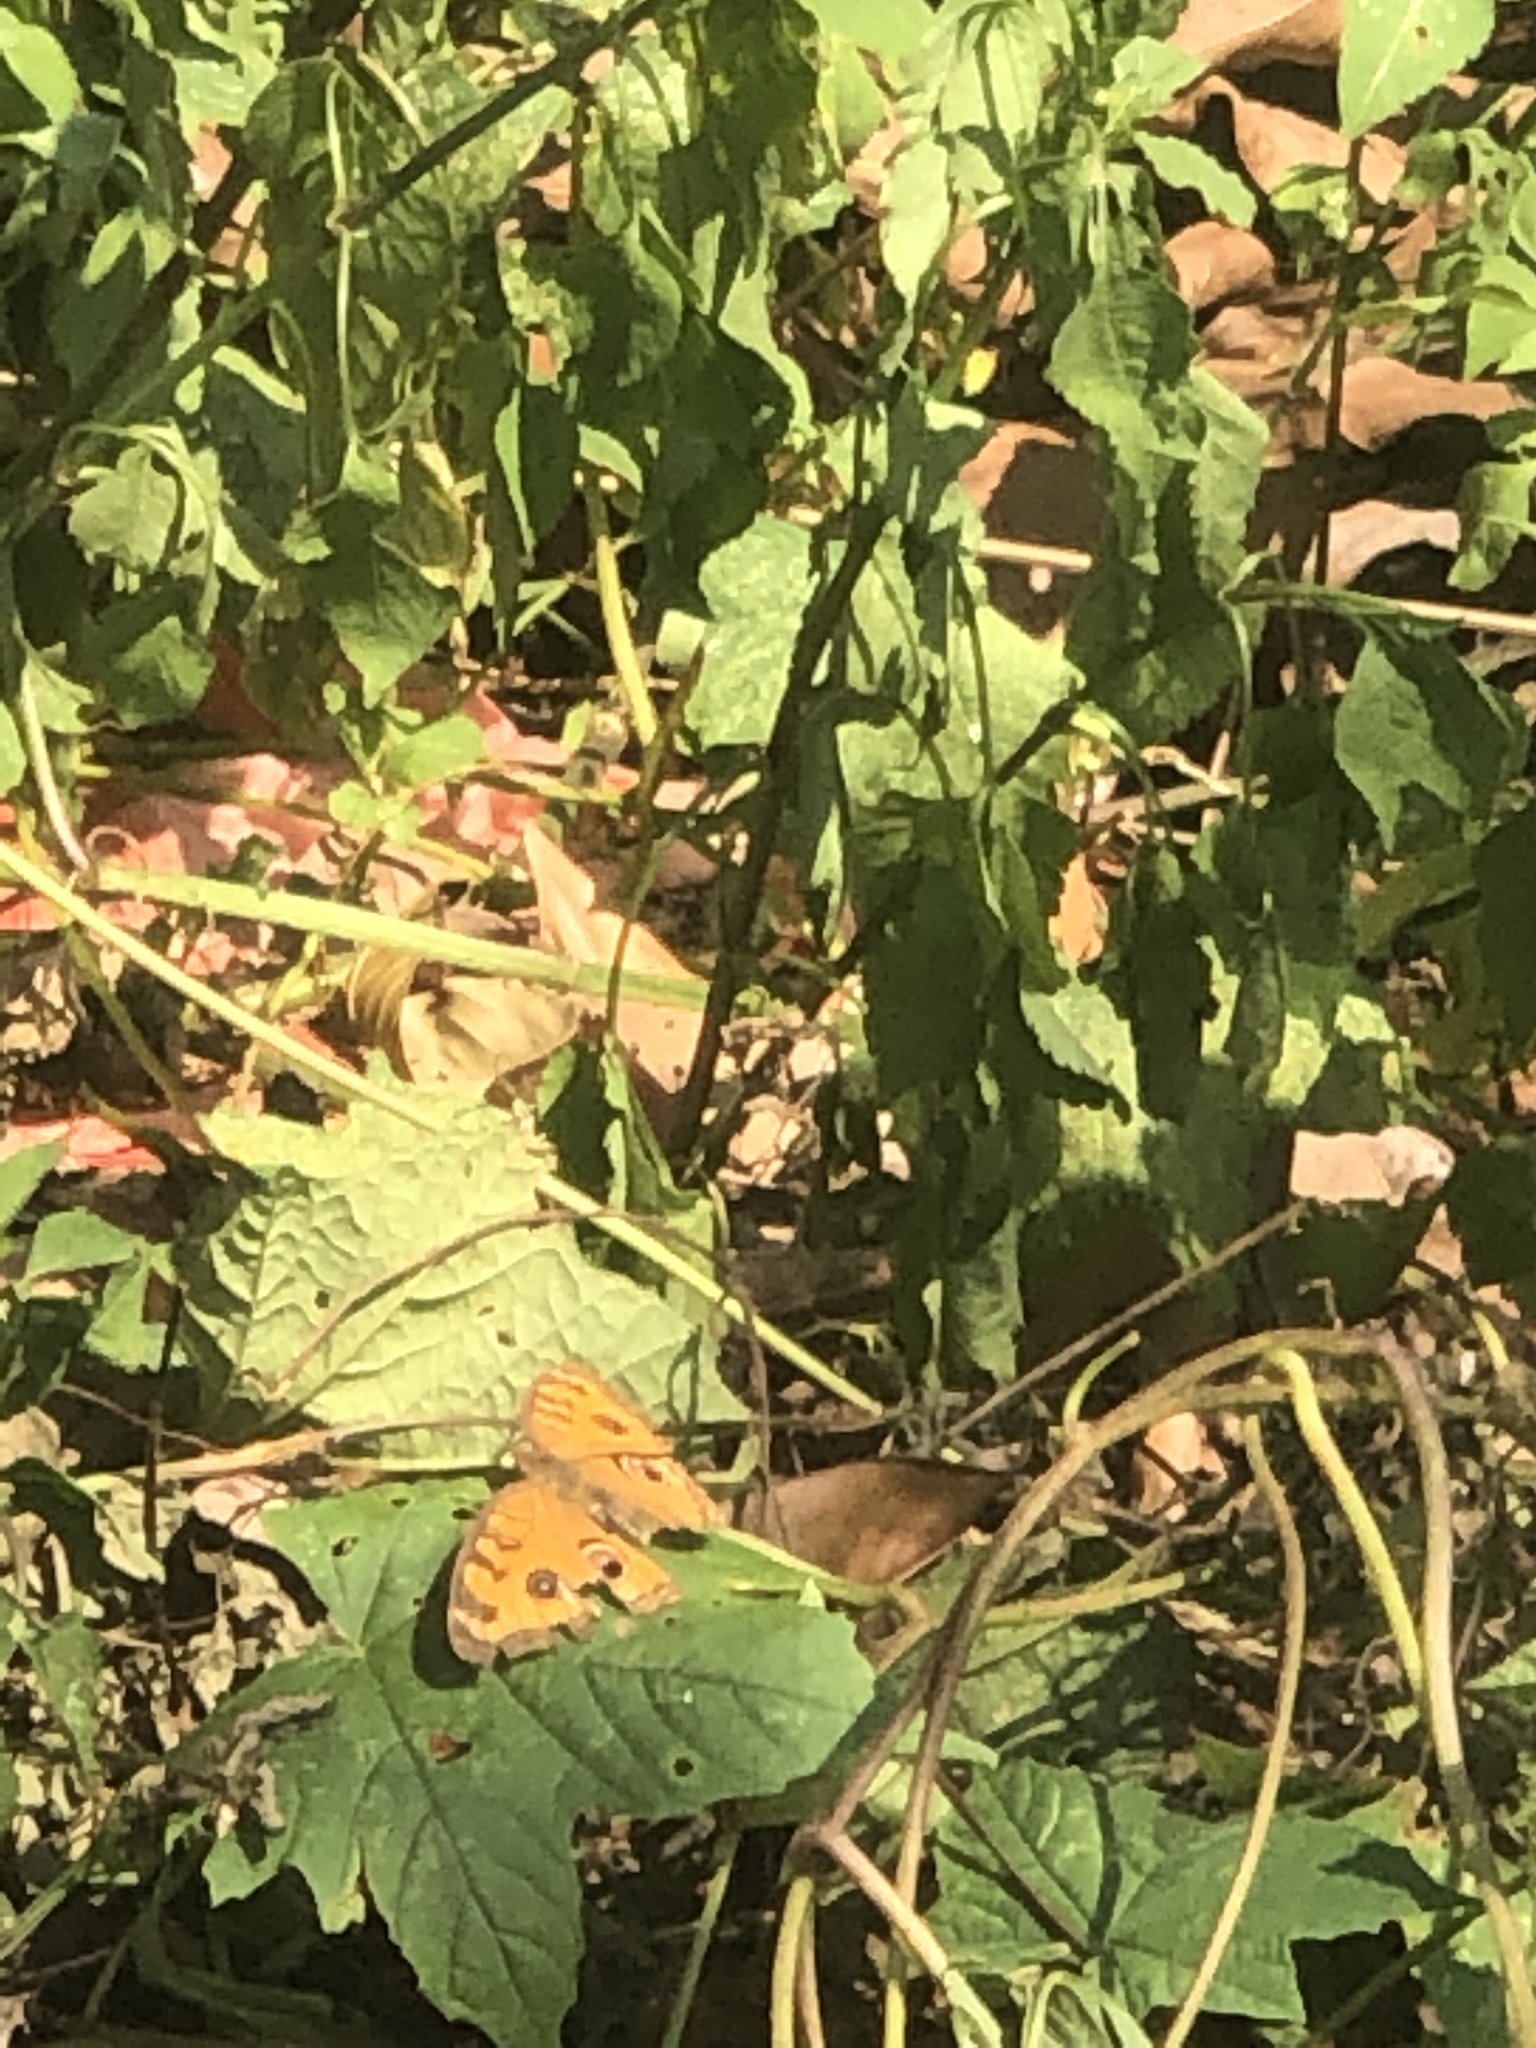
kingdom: Animalia
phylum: Arthropoda
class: Insecta
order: Lepidoptera
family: Nymphalidae
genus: Junonia
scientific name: Junonia almana
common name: Peacock pansy
